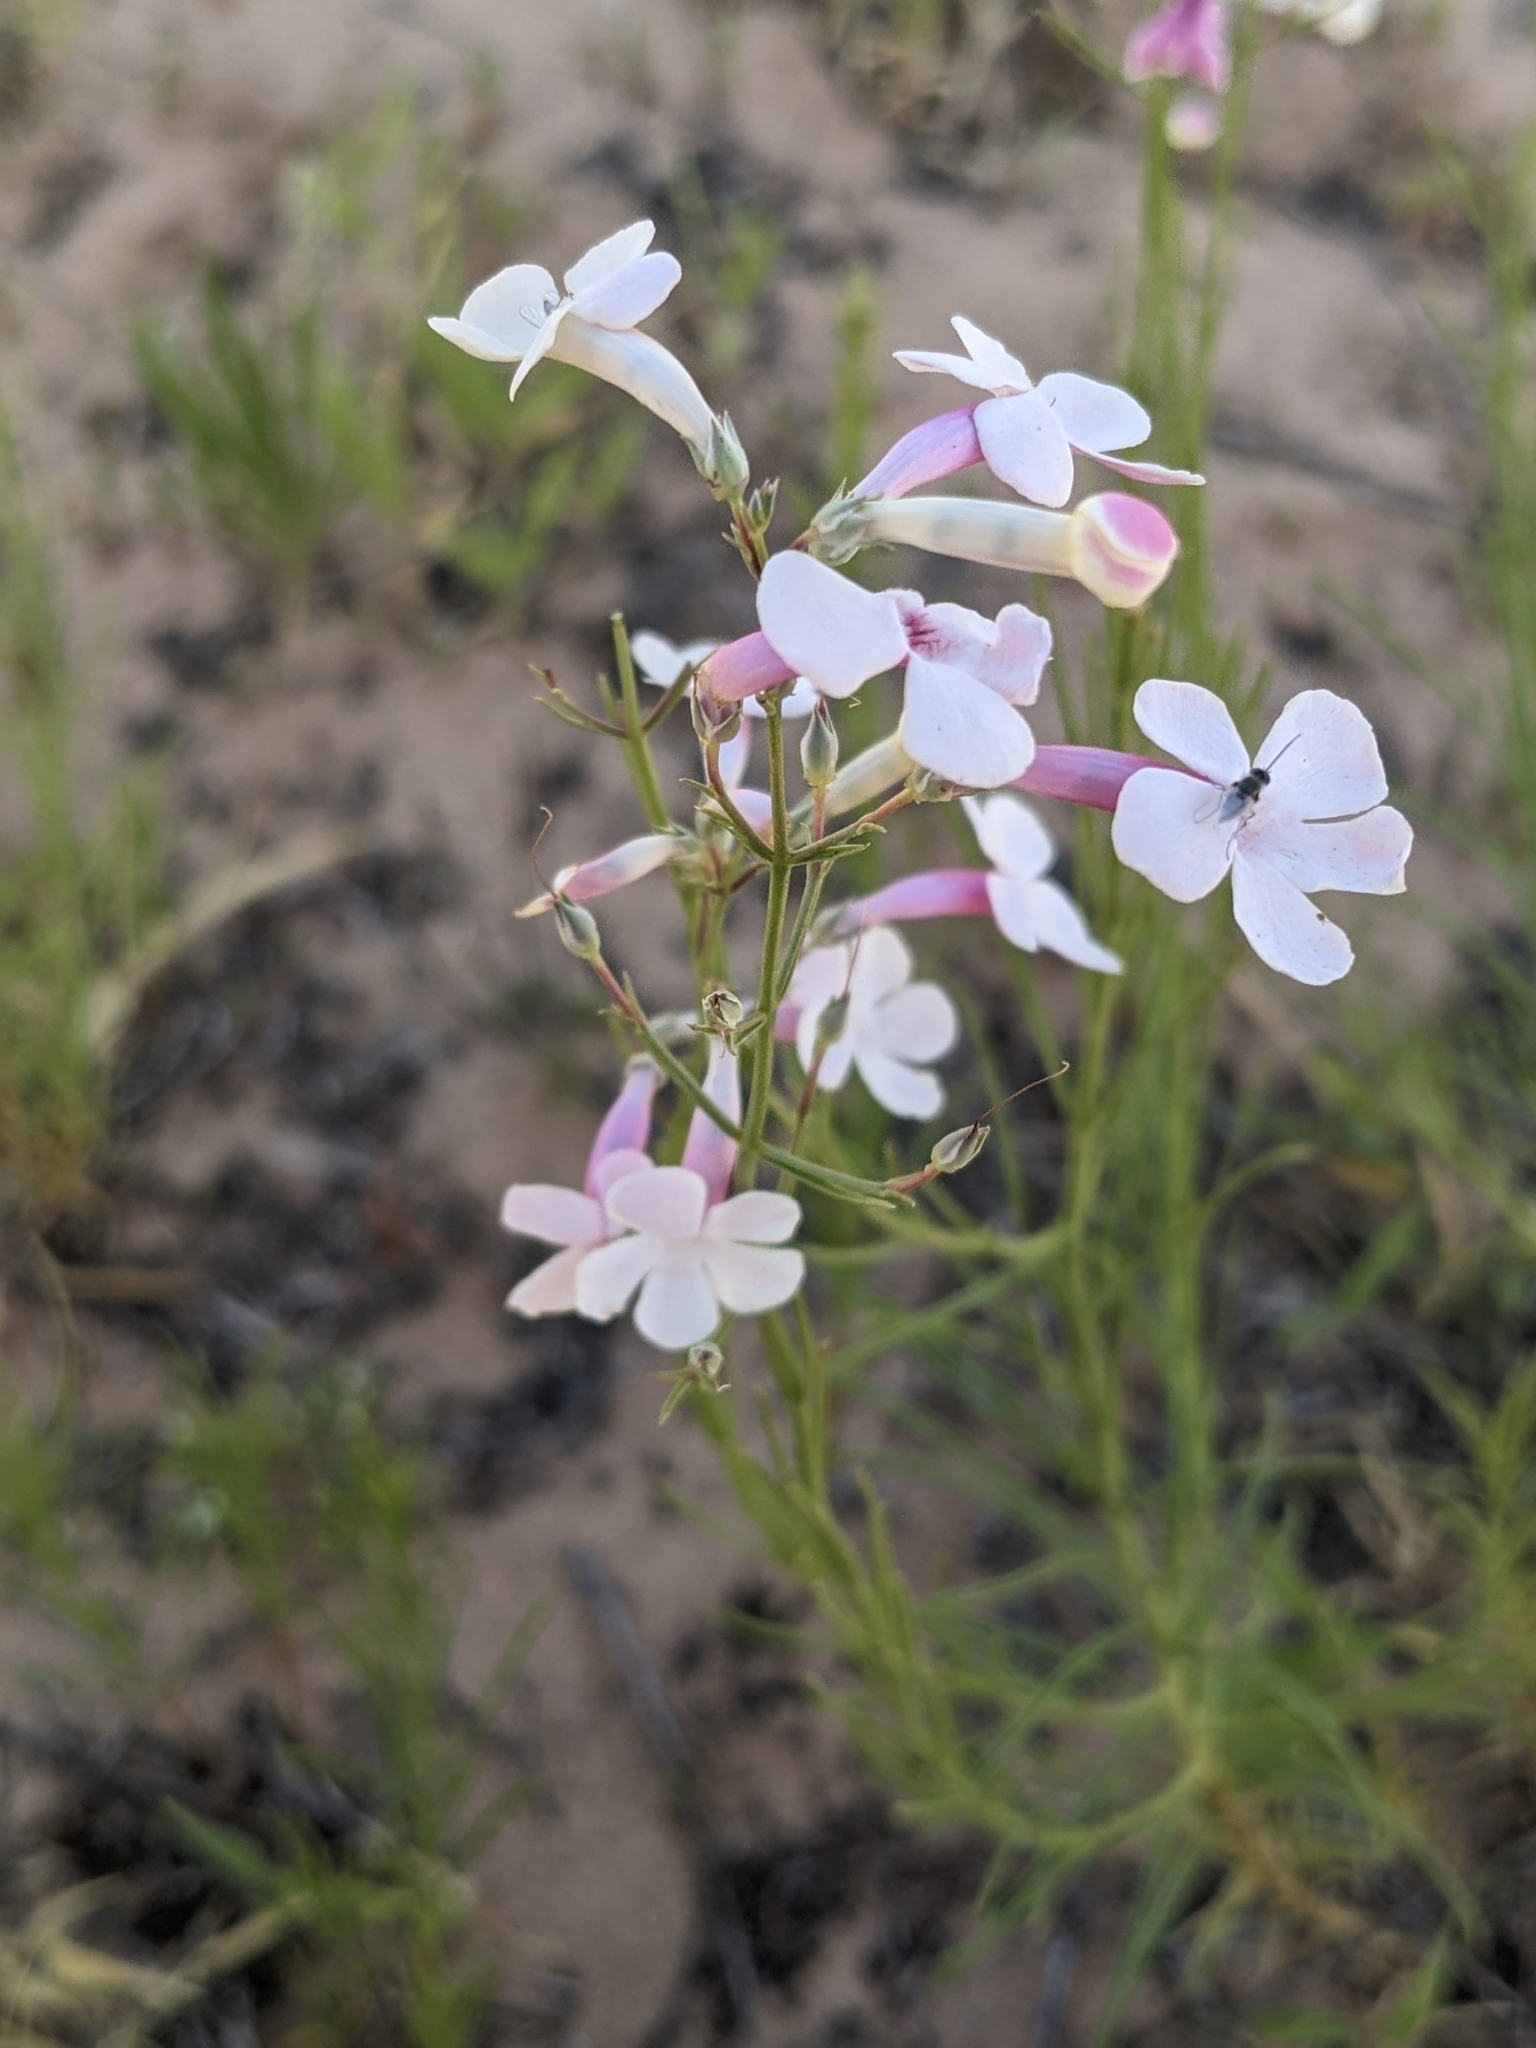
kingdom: Plantae
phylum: Tracheophyta
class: Magnoliopsida
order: Lamiales
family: Plantaginaceae
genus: Penstemon
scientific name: Penstemon ambiguus
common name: Bush penstemon
